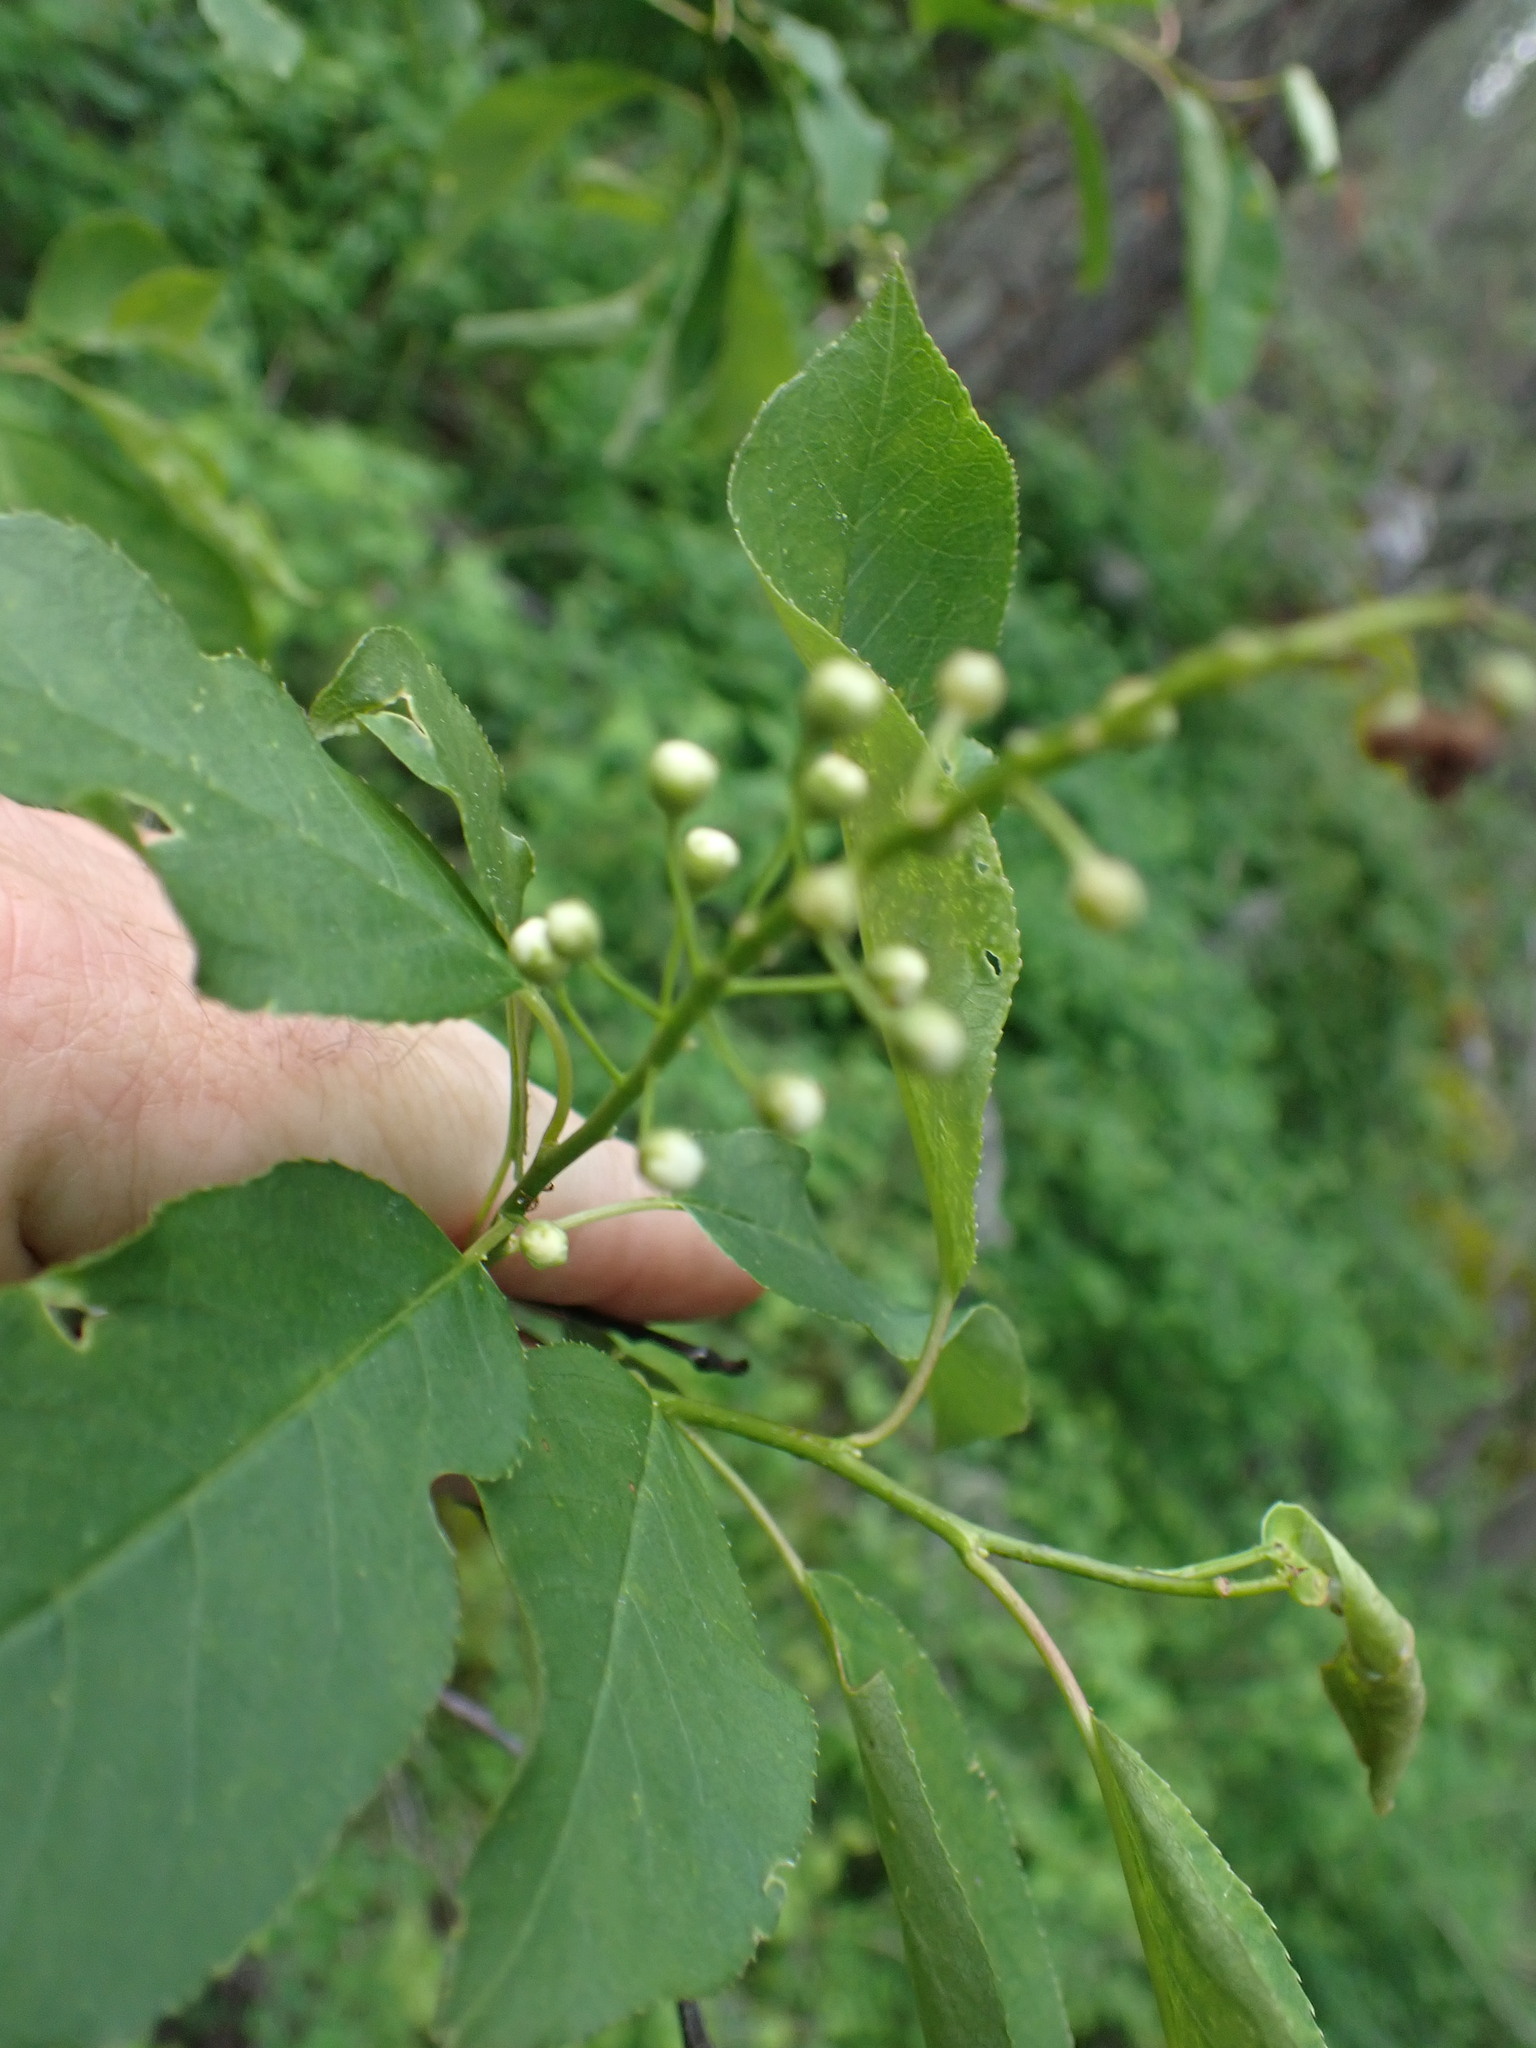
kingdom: Plantae
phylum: Tracheophyta
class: Magnoliopsida
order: Rosales
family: Rosaceae
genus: Prunus
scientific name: Prunus virginiana
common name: Chokecherry
